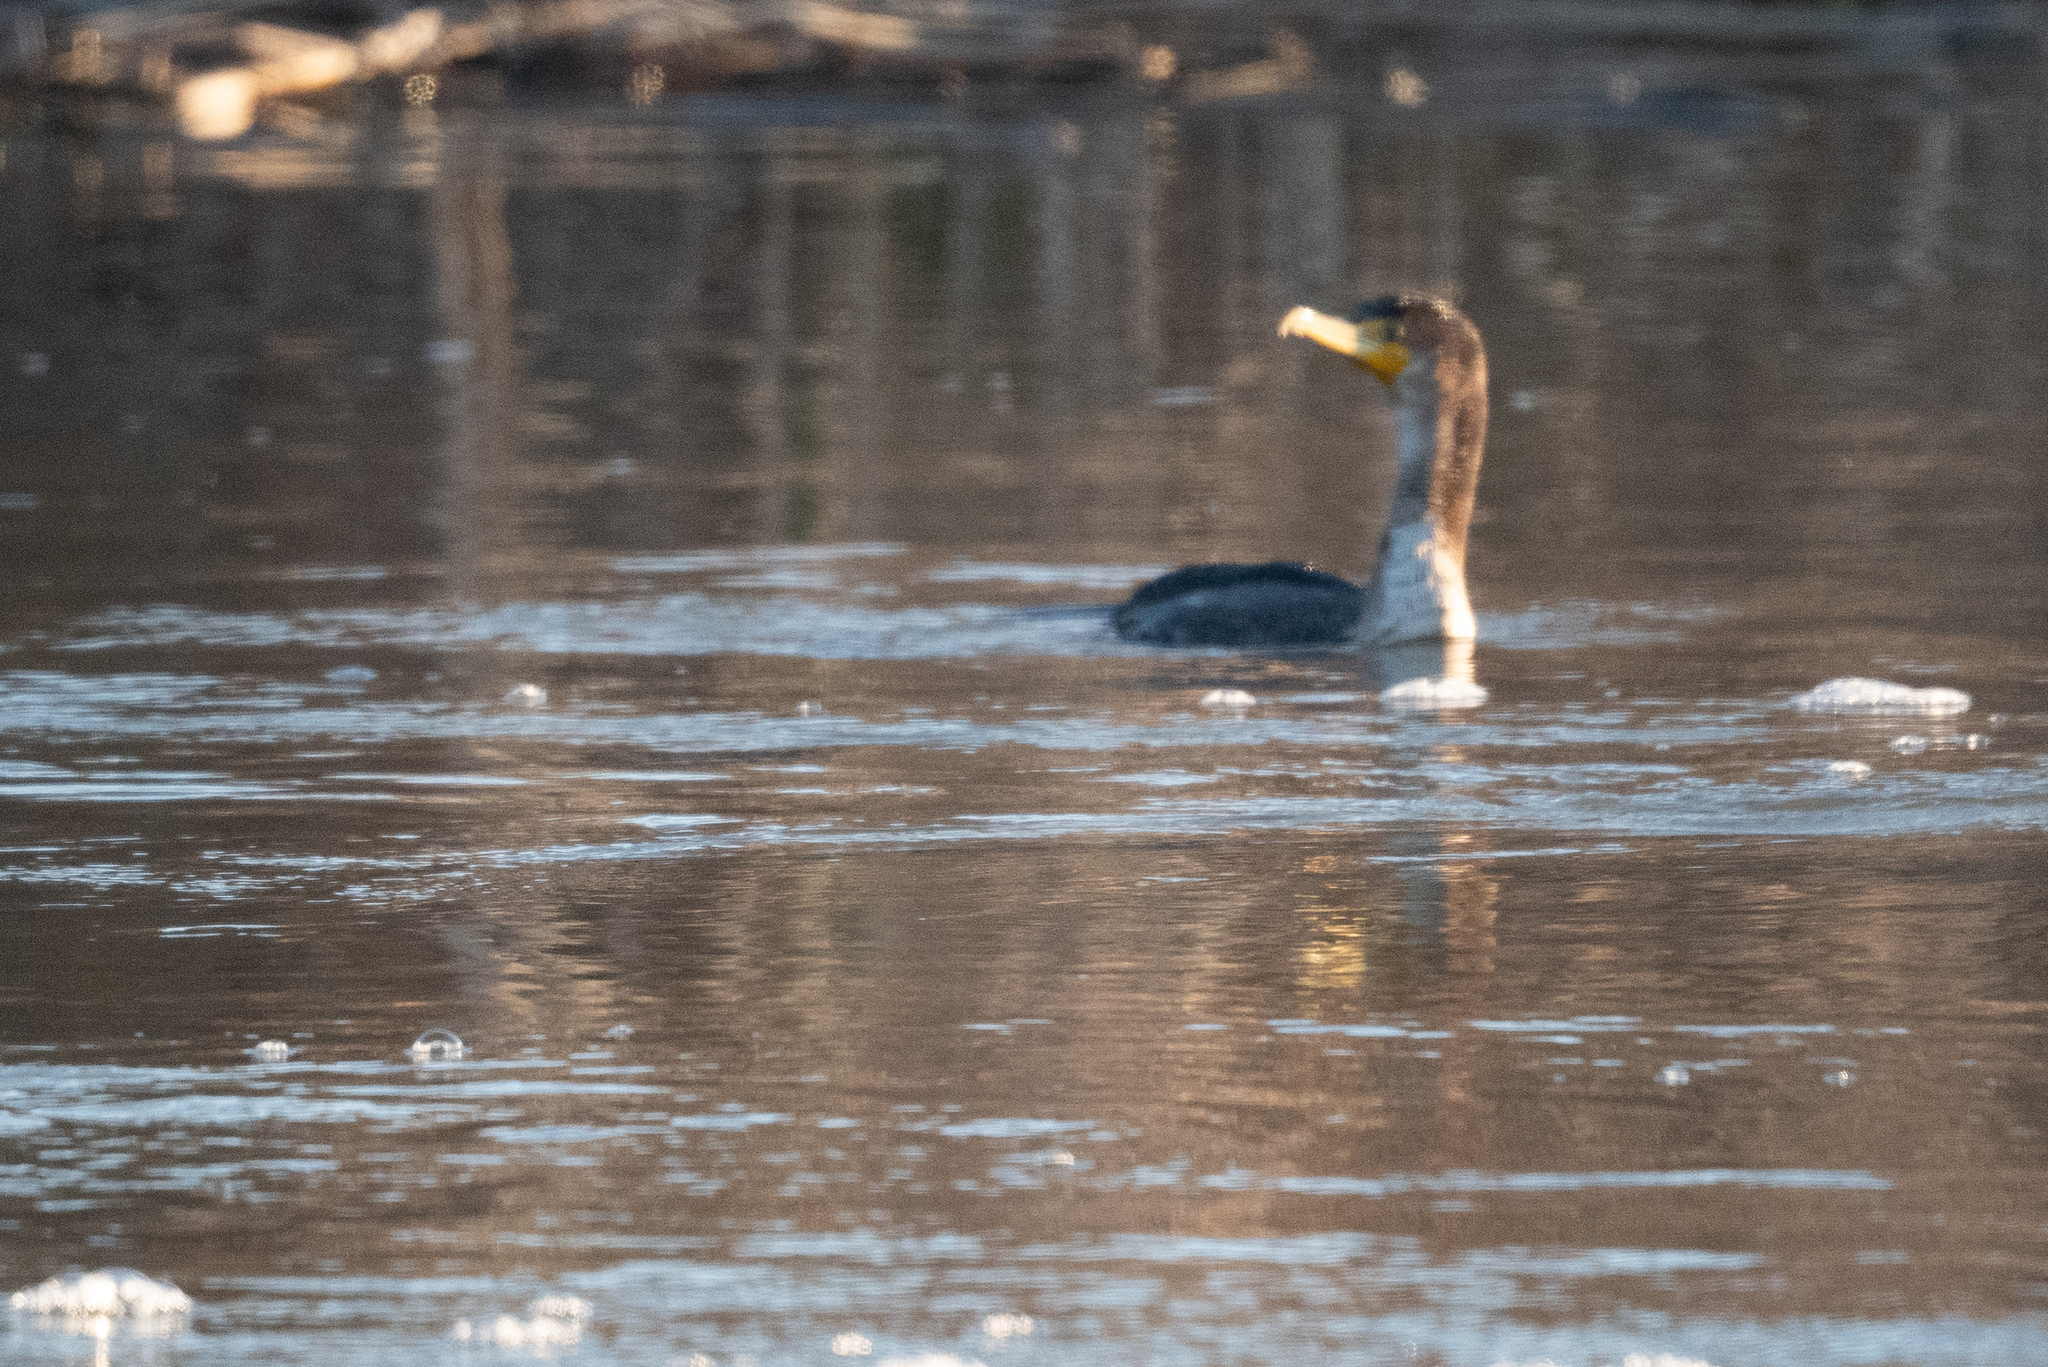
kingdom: Animalia
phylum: Chordata
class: Aves
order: Suliformes
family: Phalacrocoracidae
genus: Phalacrocorax
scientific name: Phalacrocorax auritus
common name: Double-crested cormorant
